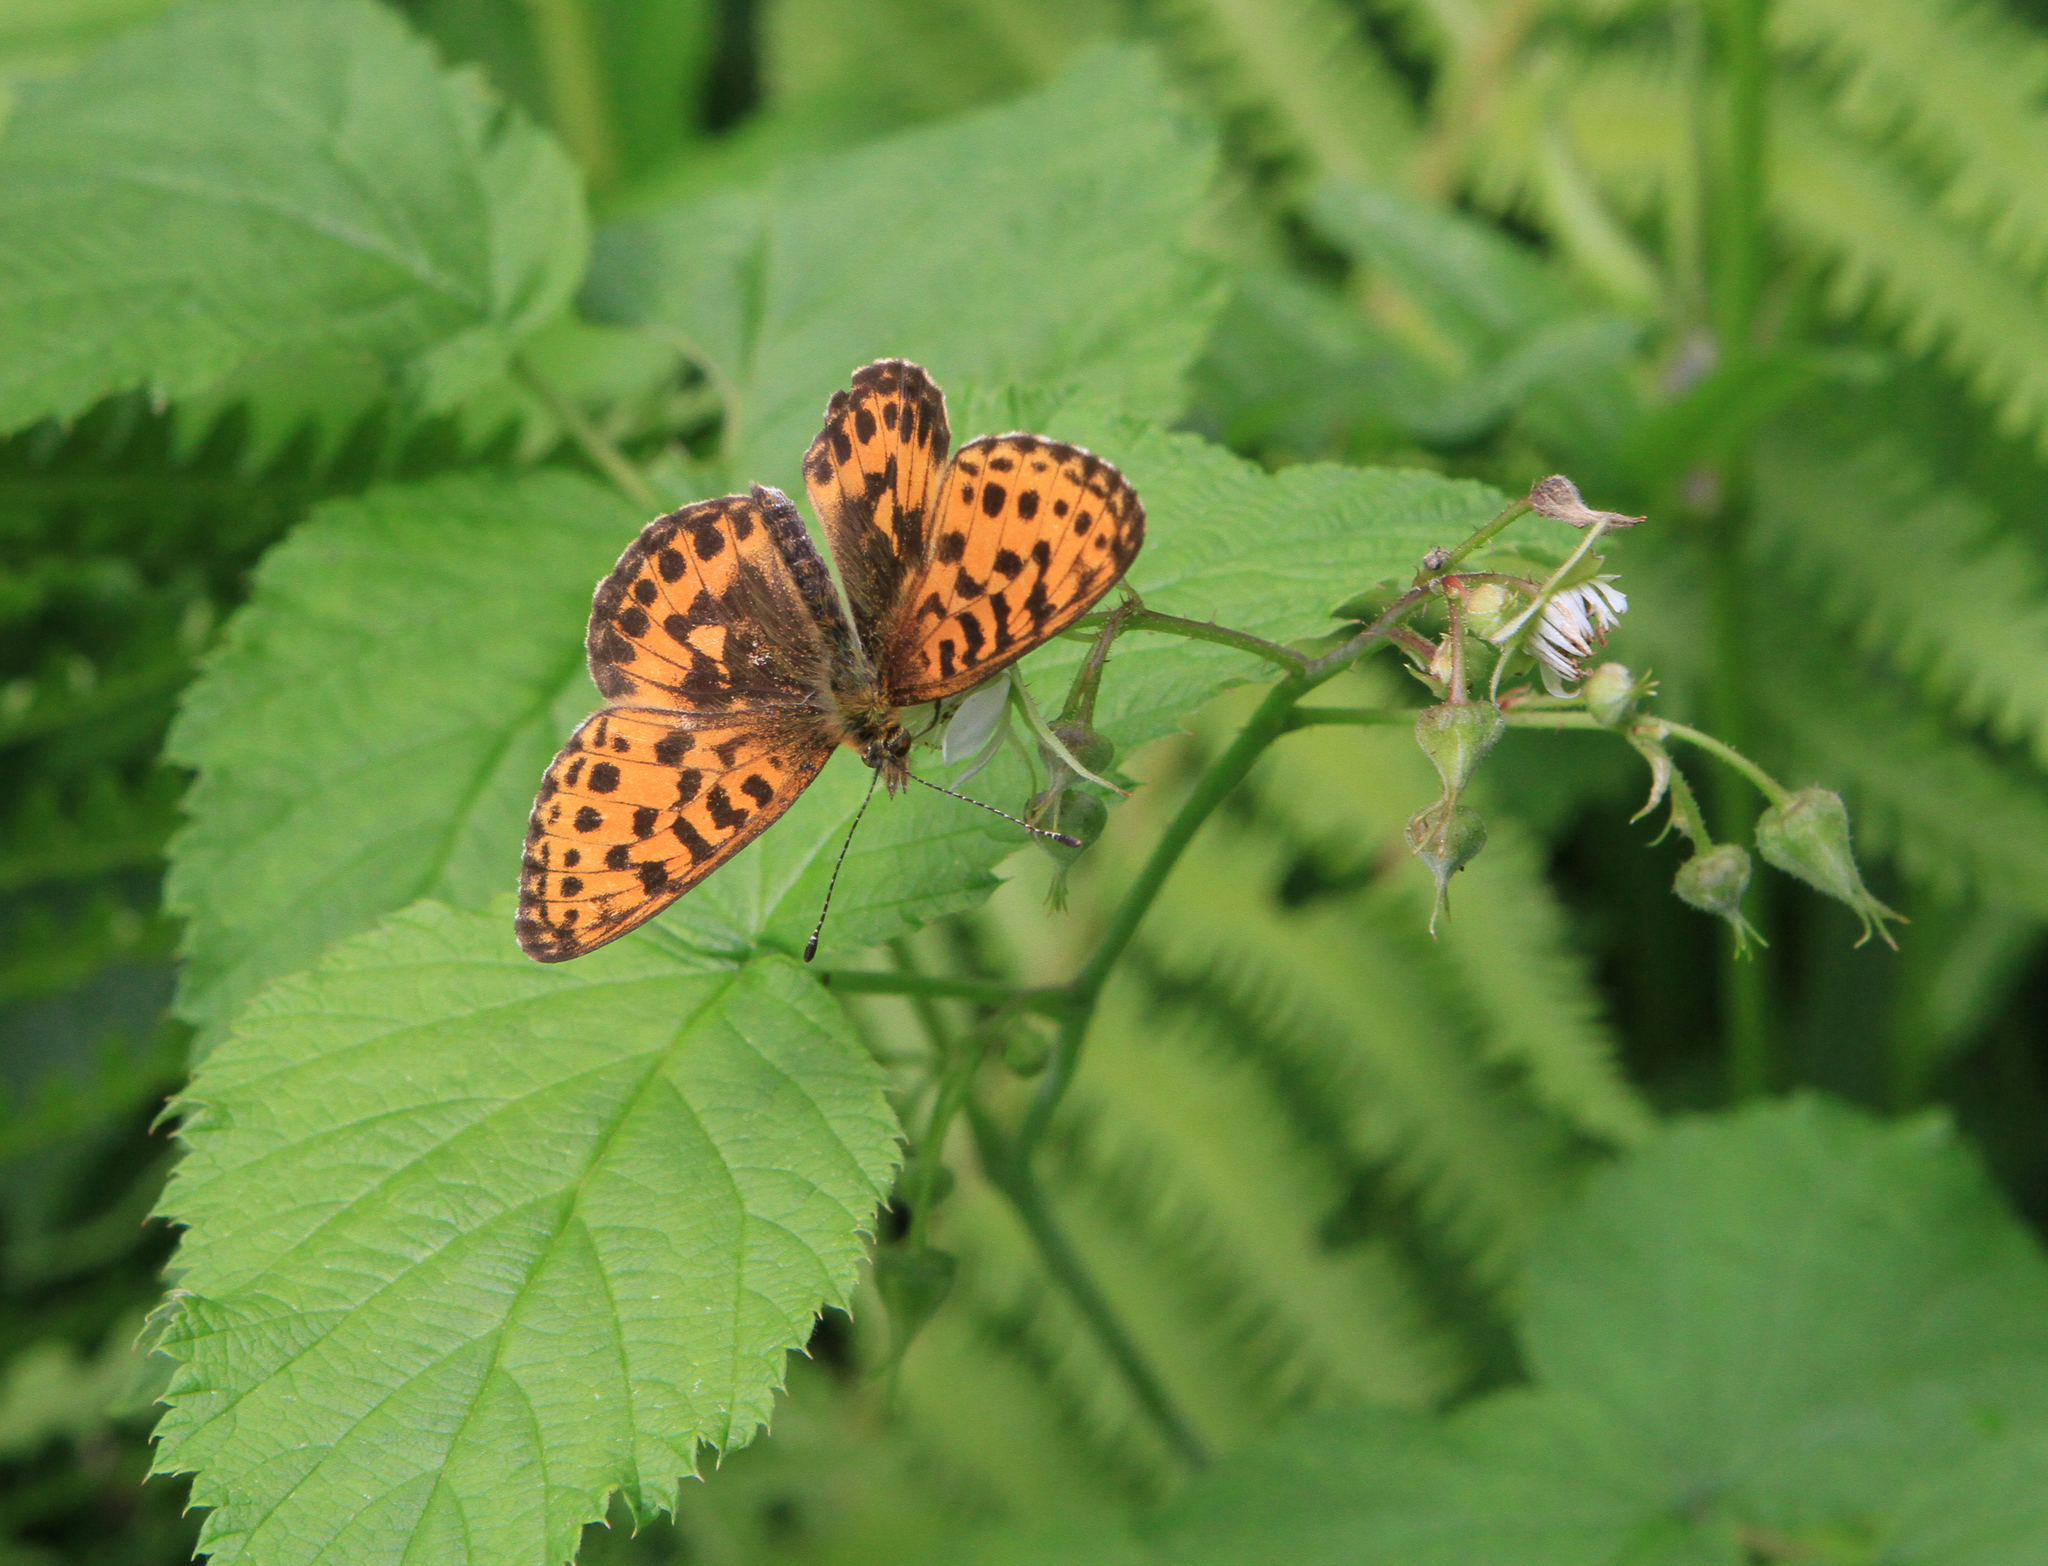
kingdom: Animalia
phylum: Arthropoda
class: Insecta
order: Lepidoptera
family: Nymphalidae
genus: Boloria
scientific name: Boloria thore
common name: Thor's fritillary
